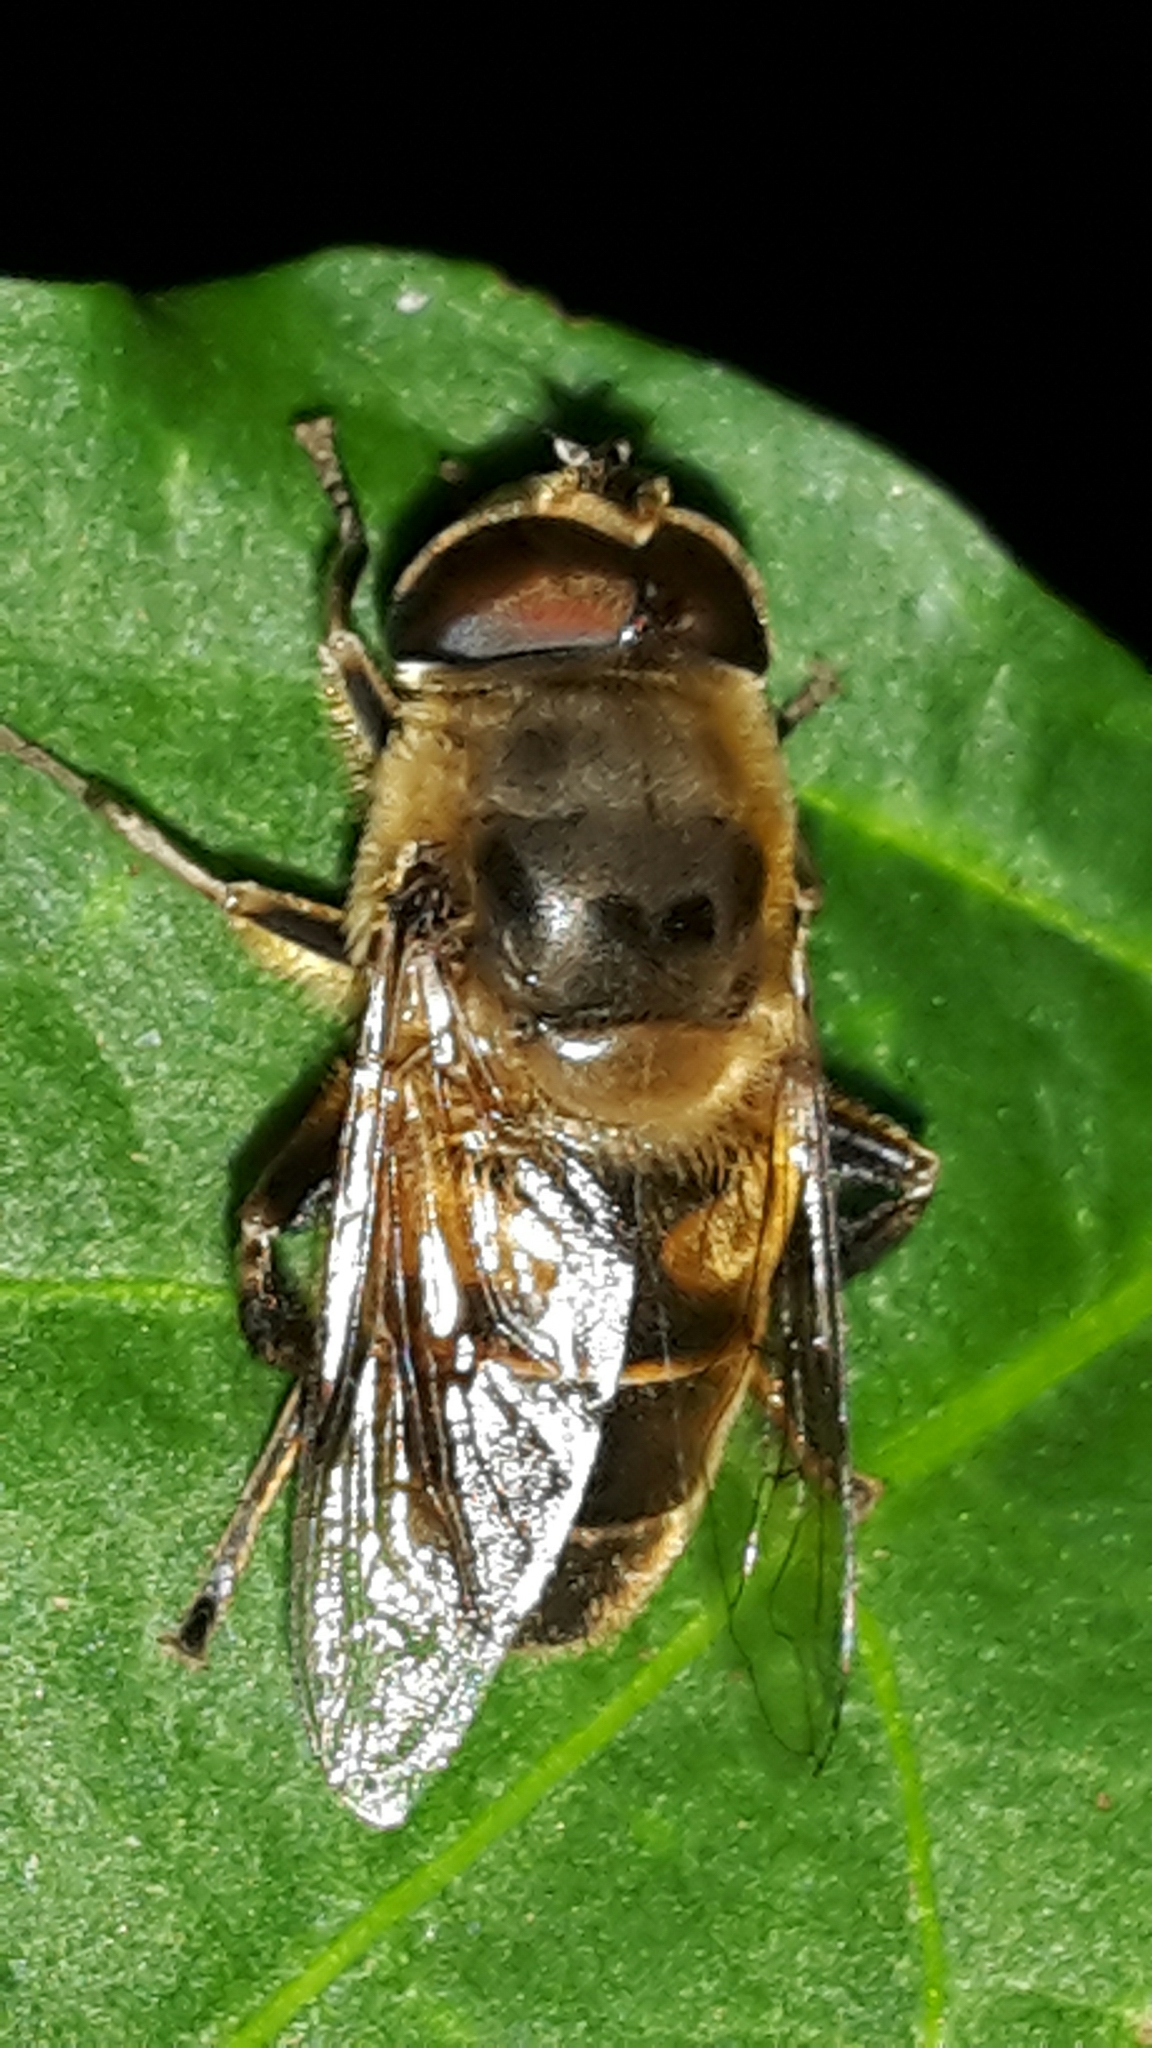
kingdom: Animalia
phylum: Arthropoda
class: Insecta
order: Diptera
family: Syrphidae
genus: Eristalis
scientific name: Eristalis tenax
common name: Drone fly
